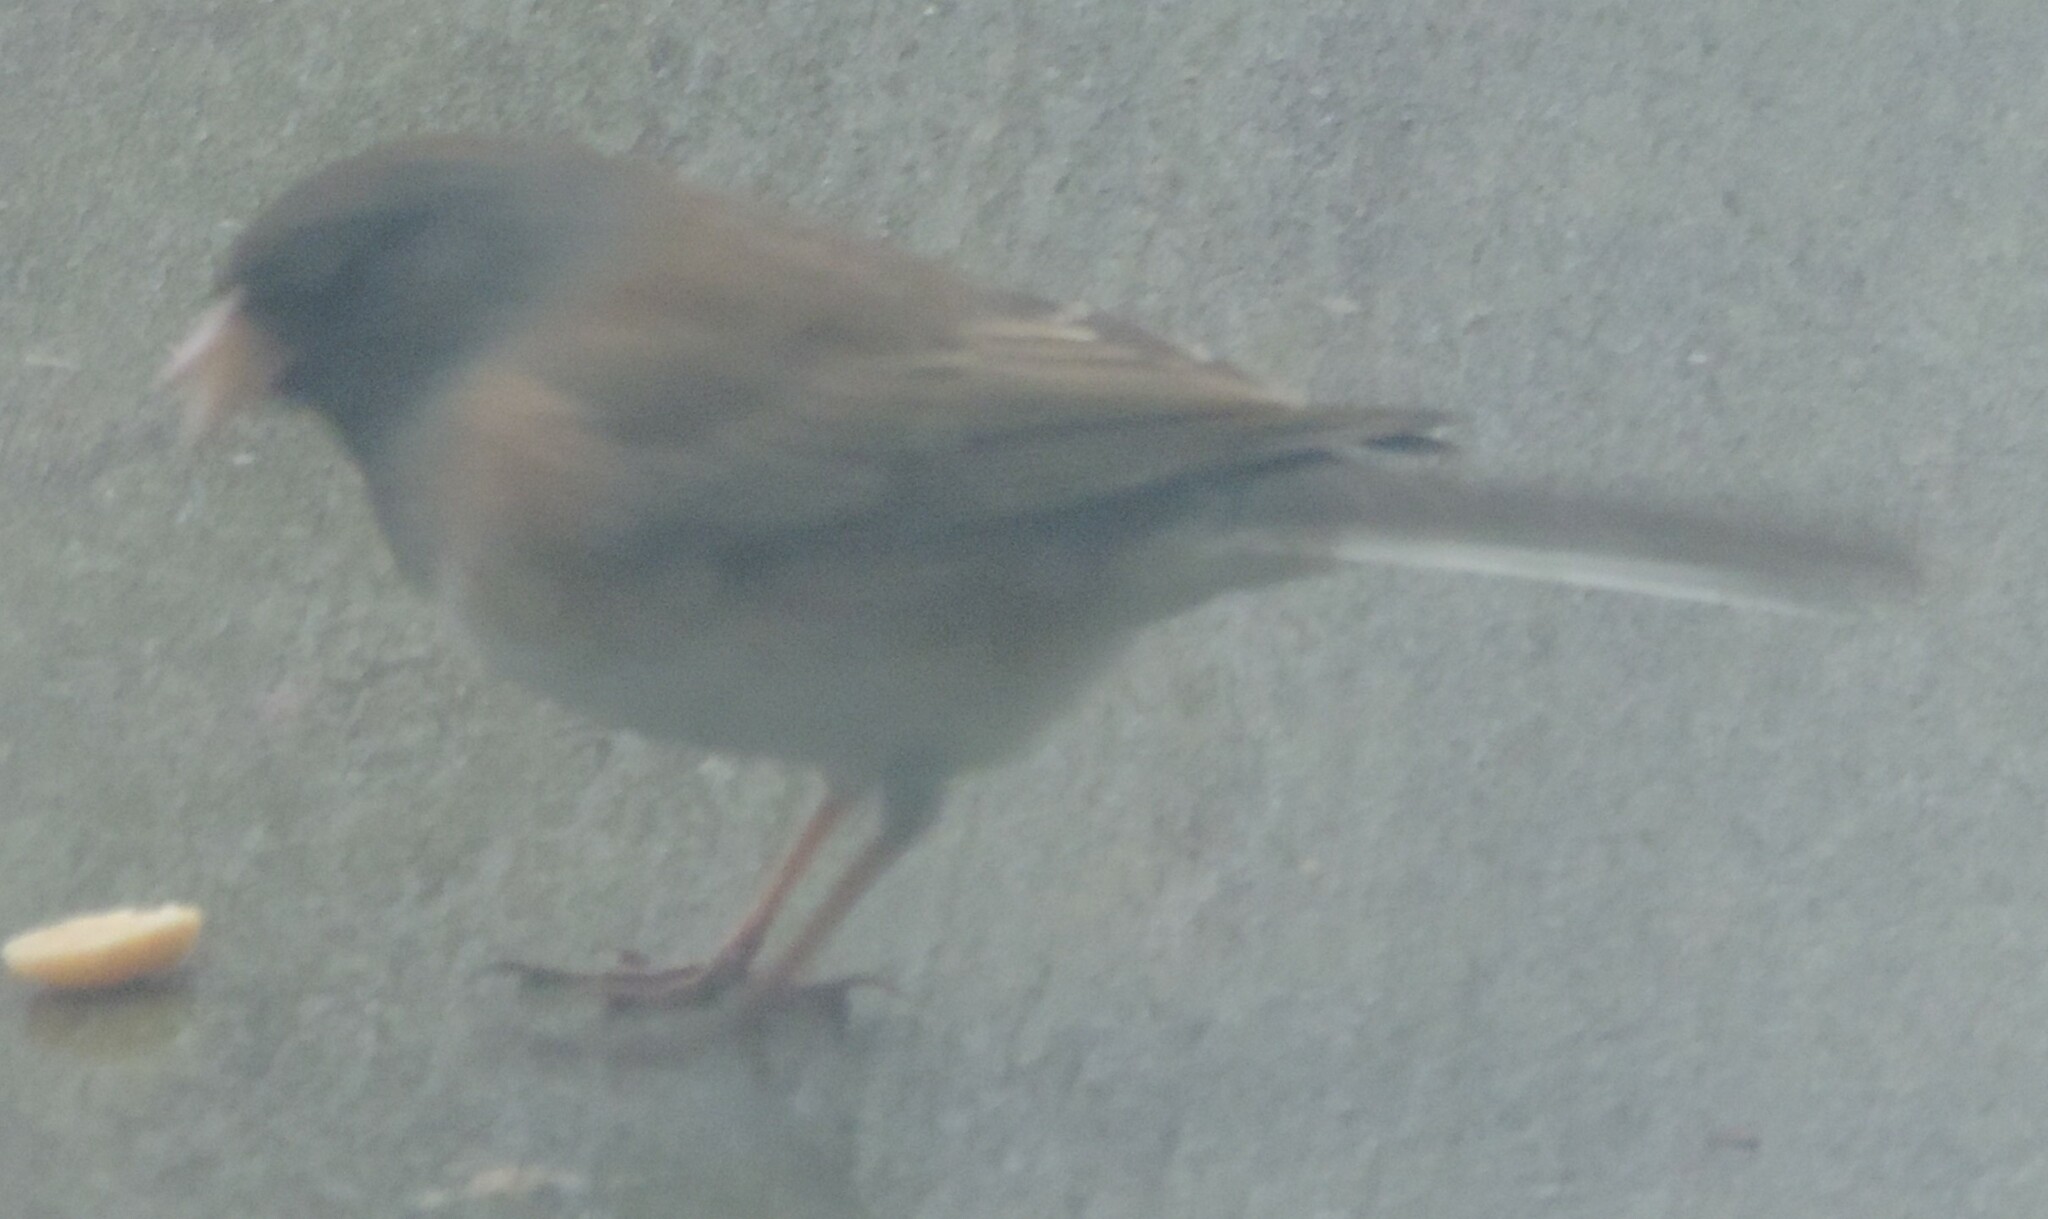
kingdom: Animalia
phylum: Chordata
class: Aves
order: Passeriformes
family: Passerellidae
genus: Junco
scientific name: Junco hyemalis
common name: Dark-eyed junco
